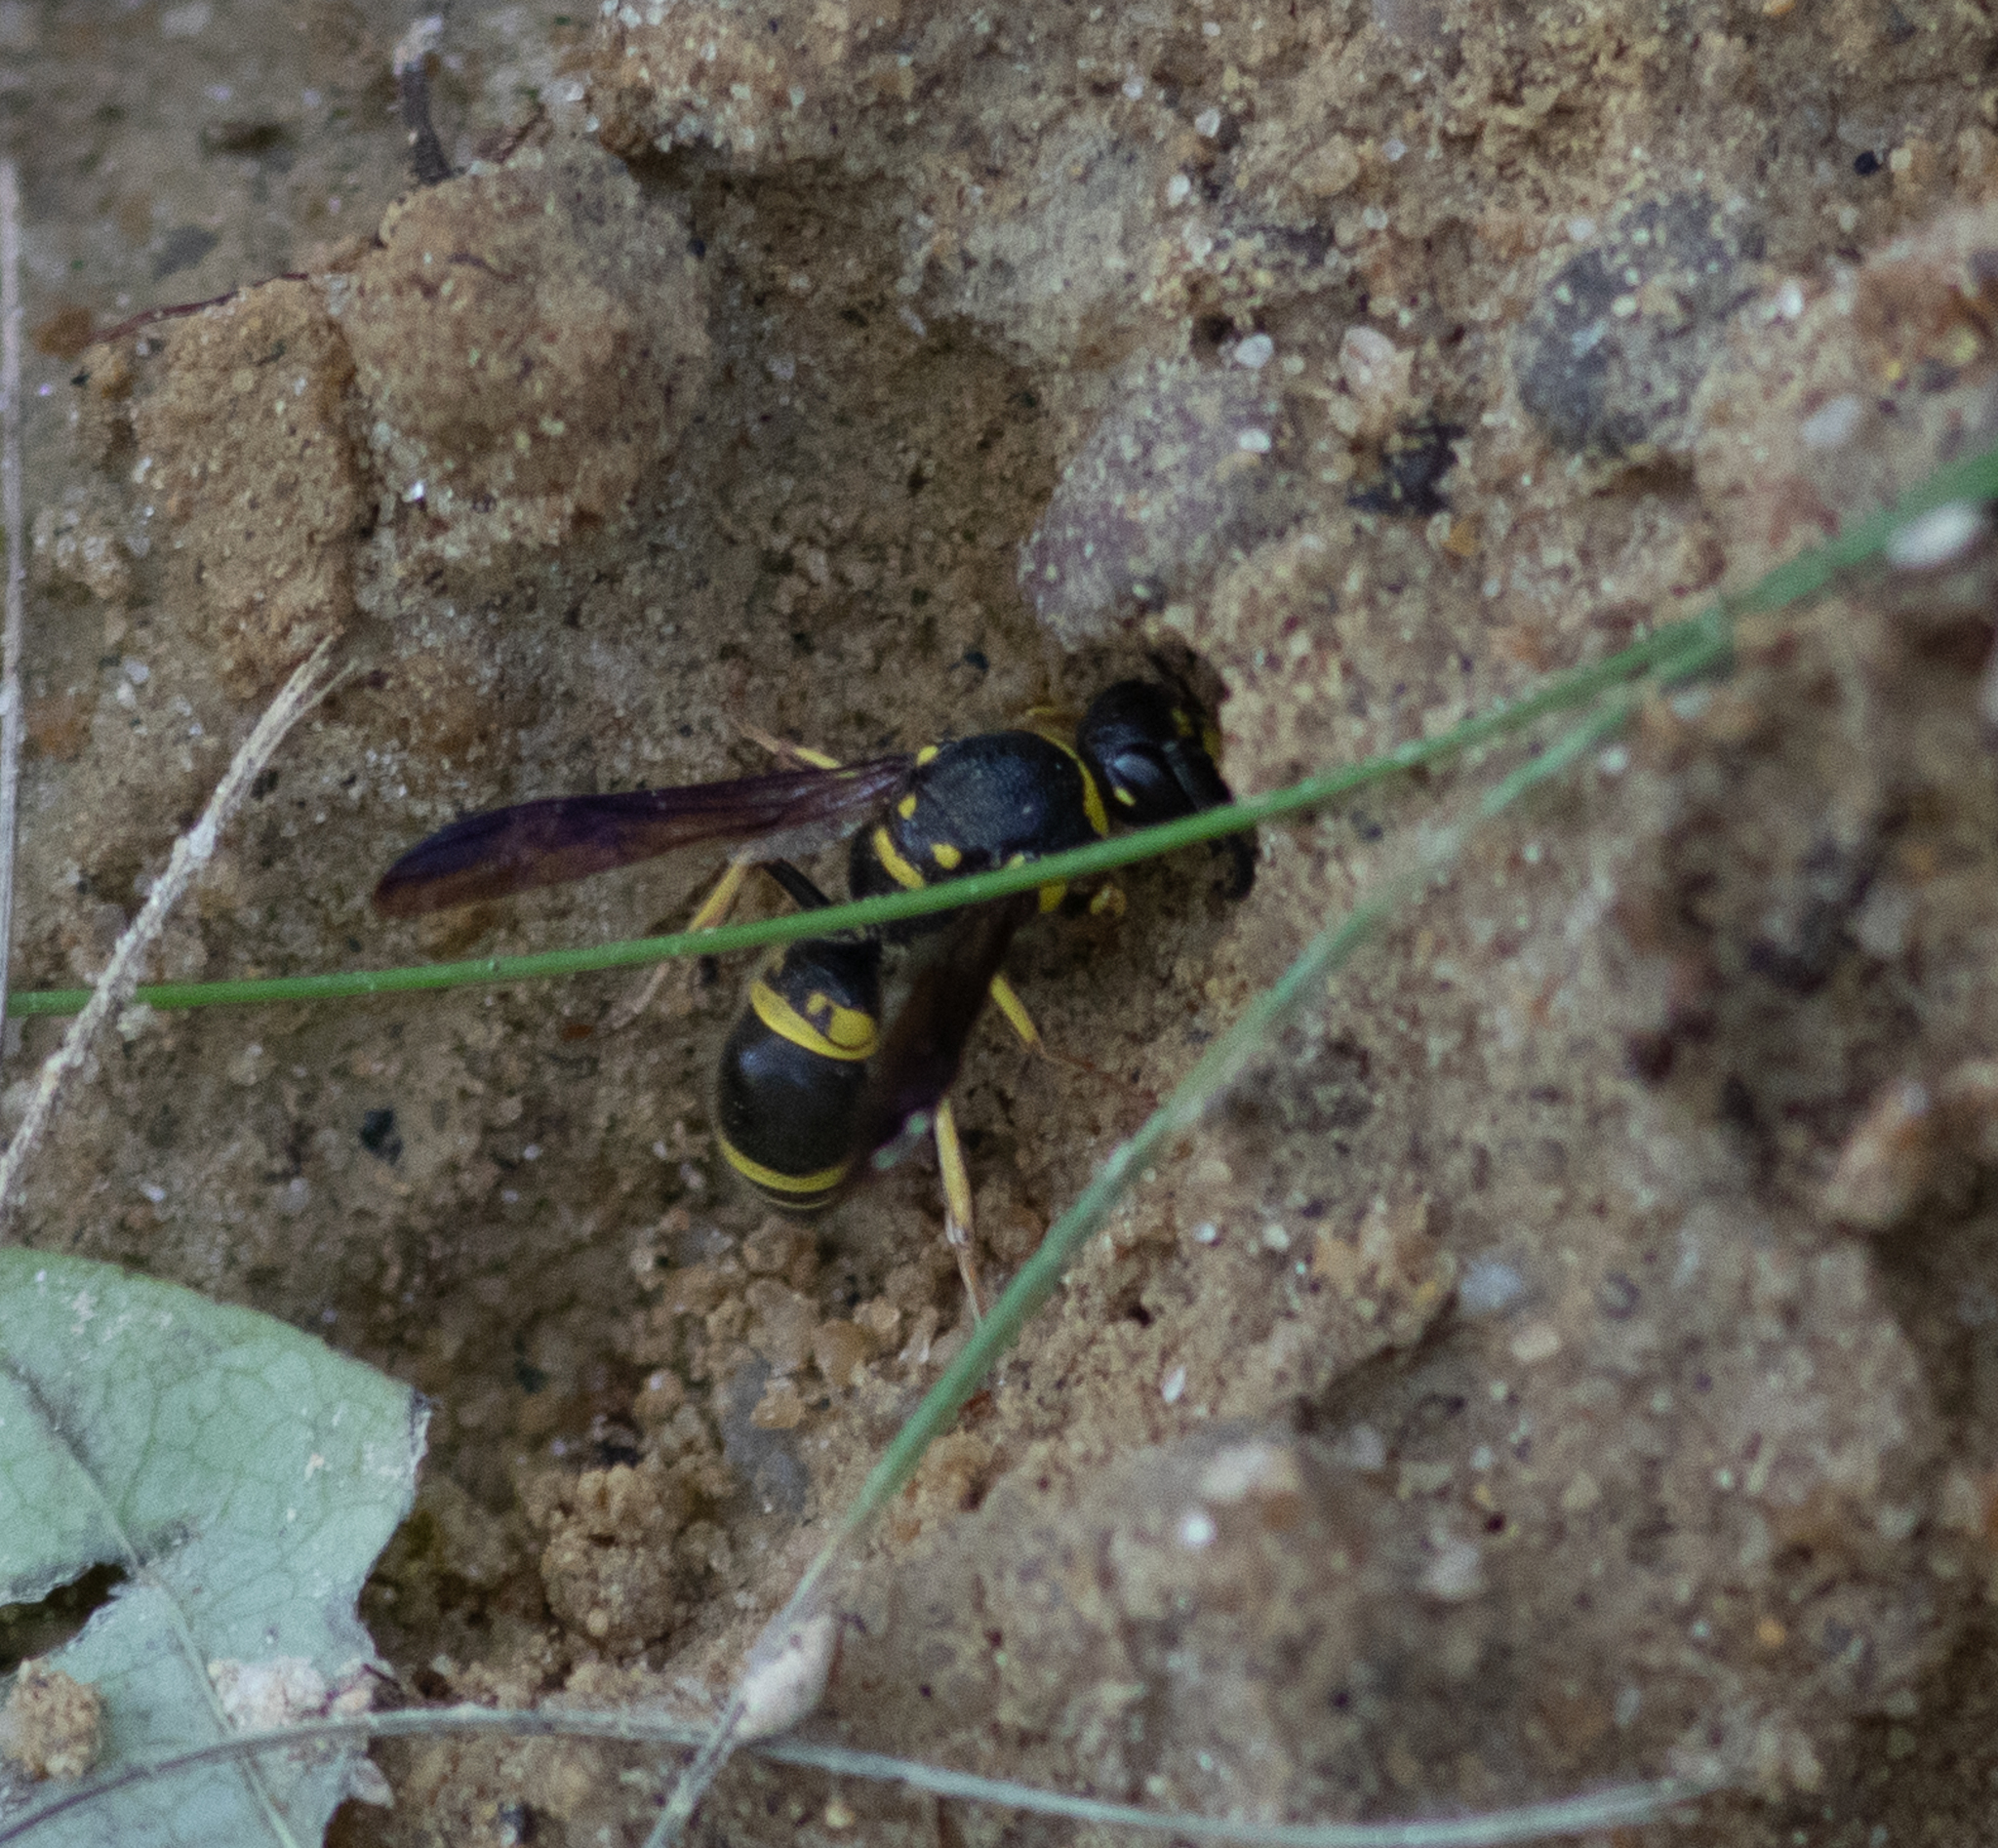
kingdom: Animalia
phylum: Arthropoda
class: Insecta
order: Hymenoptera
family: Vespidae
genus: Ancistrocerus
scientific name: Ancistrocerus campestris
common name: Smiling mason wasp
